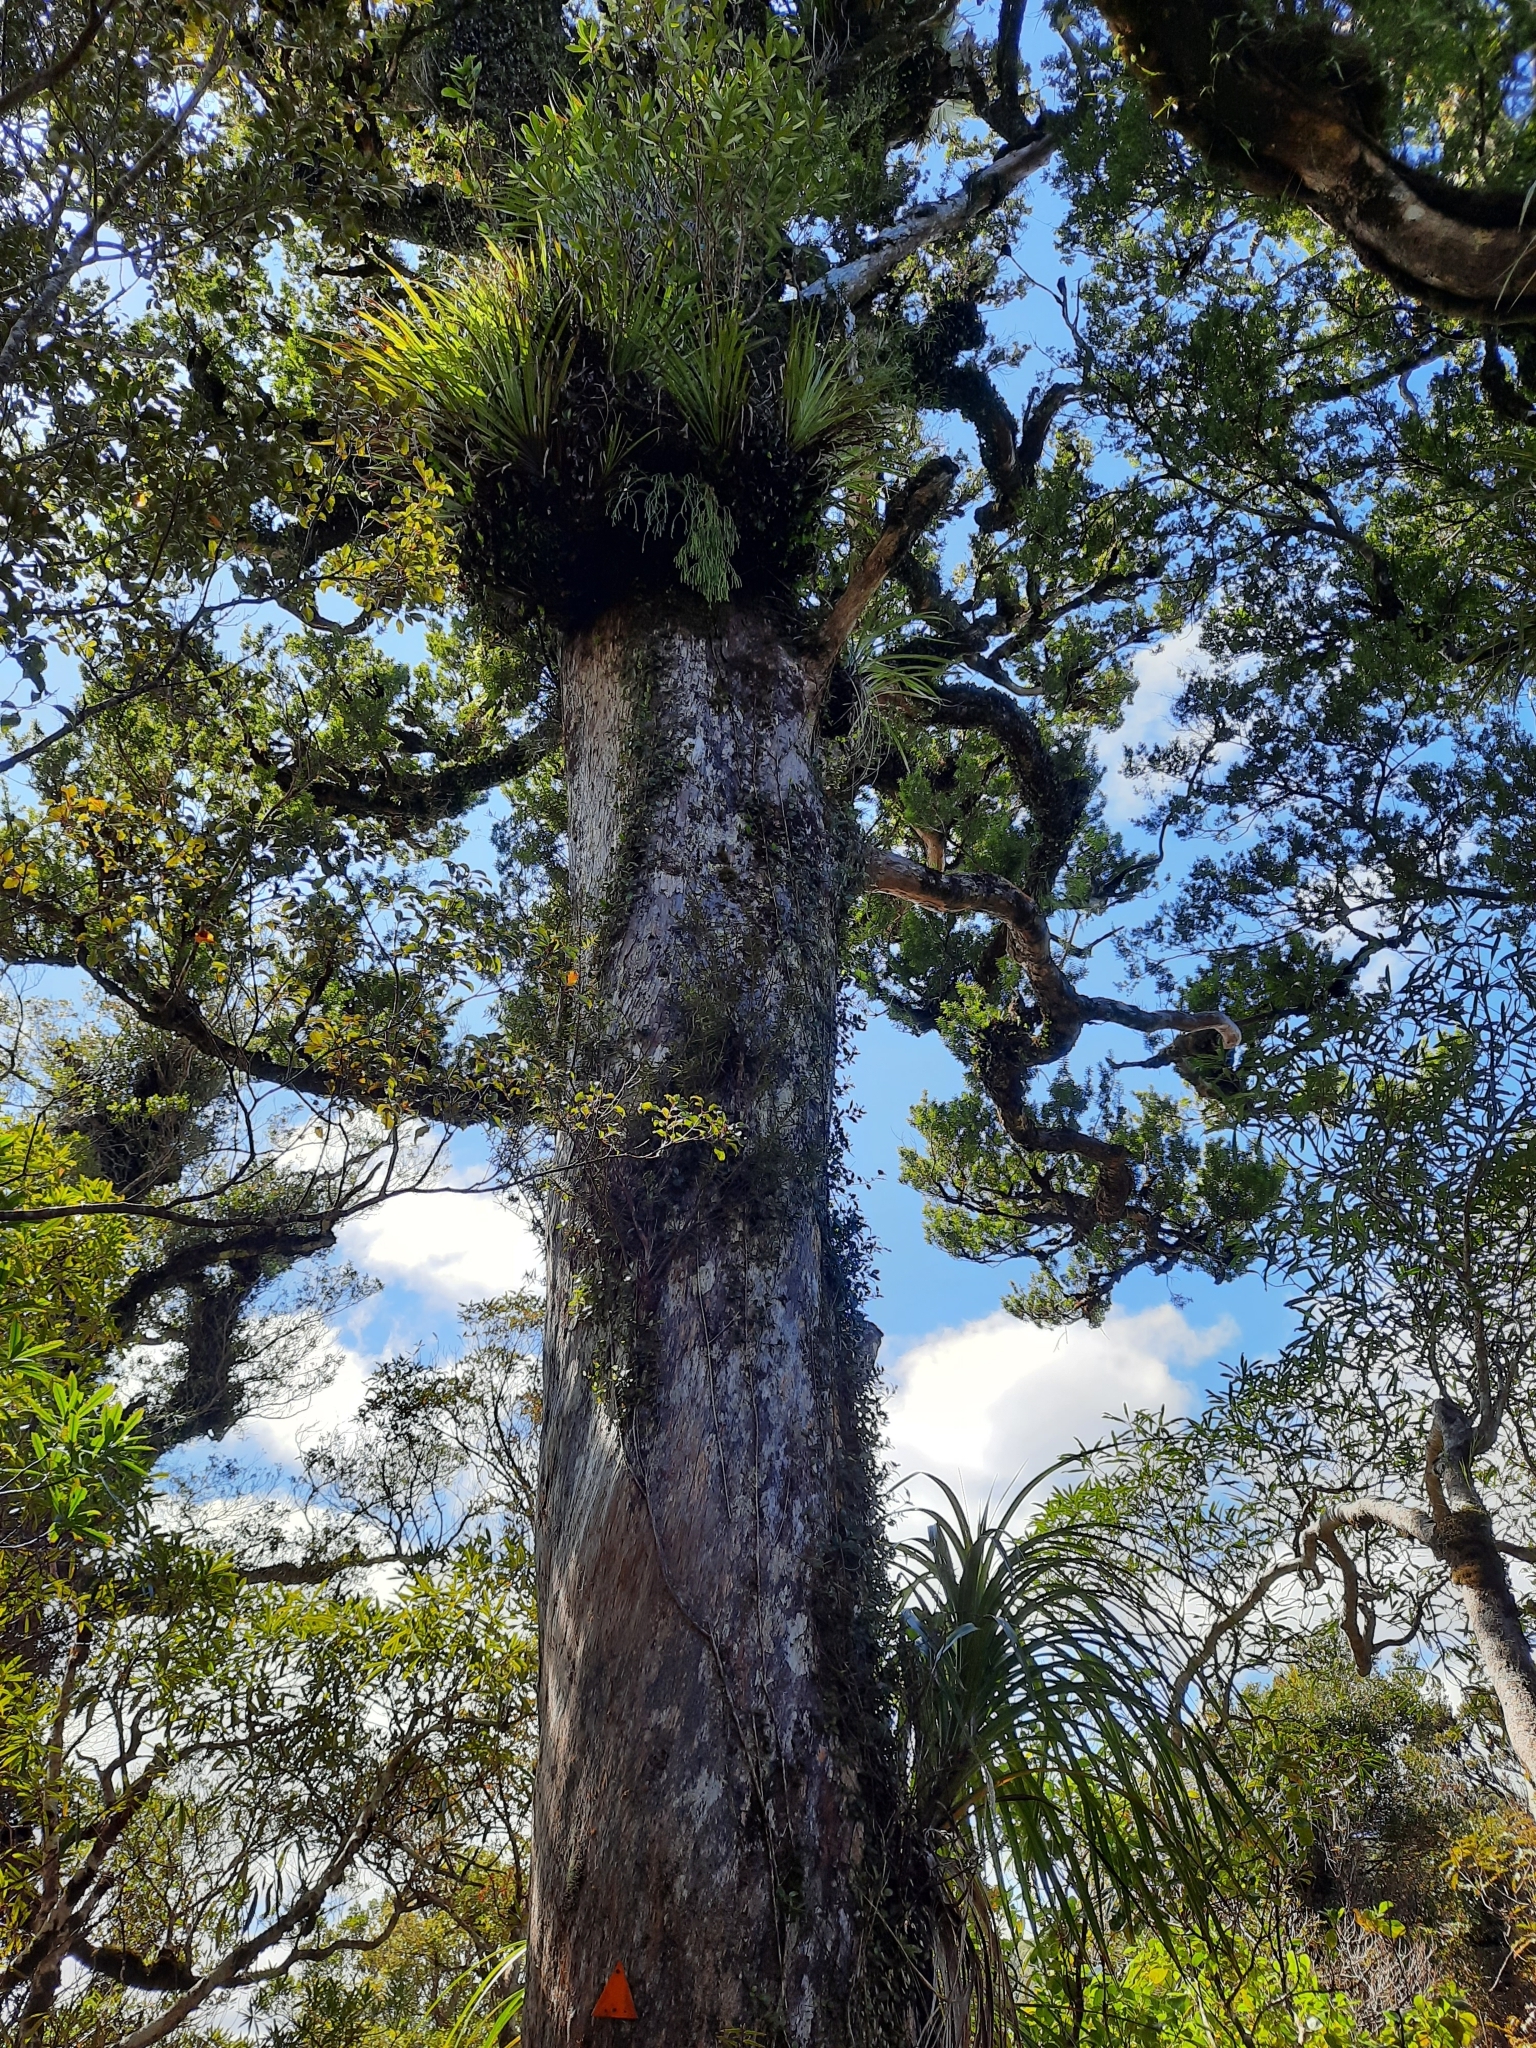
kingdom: Plantae
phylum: Tracheophyta
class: Pinopsida
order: Pinales
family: Podocarpaceae
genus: Prumnopitys
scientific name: Prumnopitys ferruginea
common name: Brown pine
